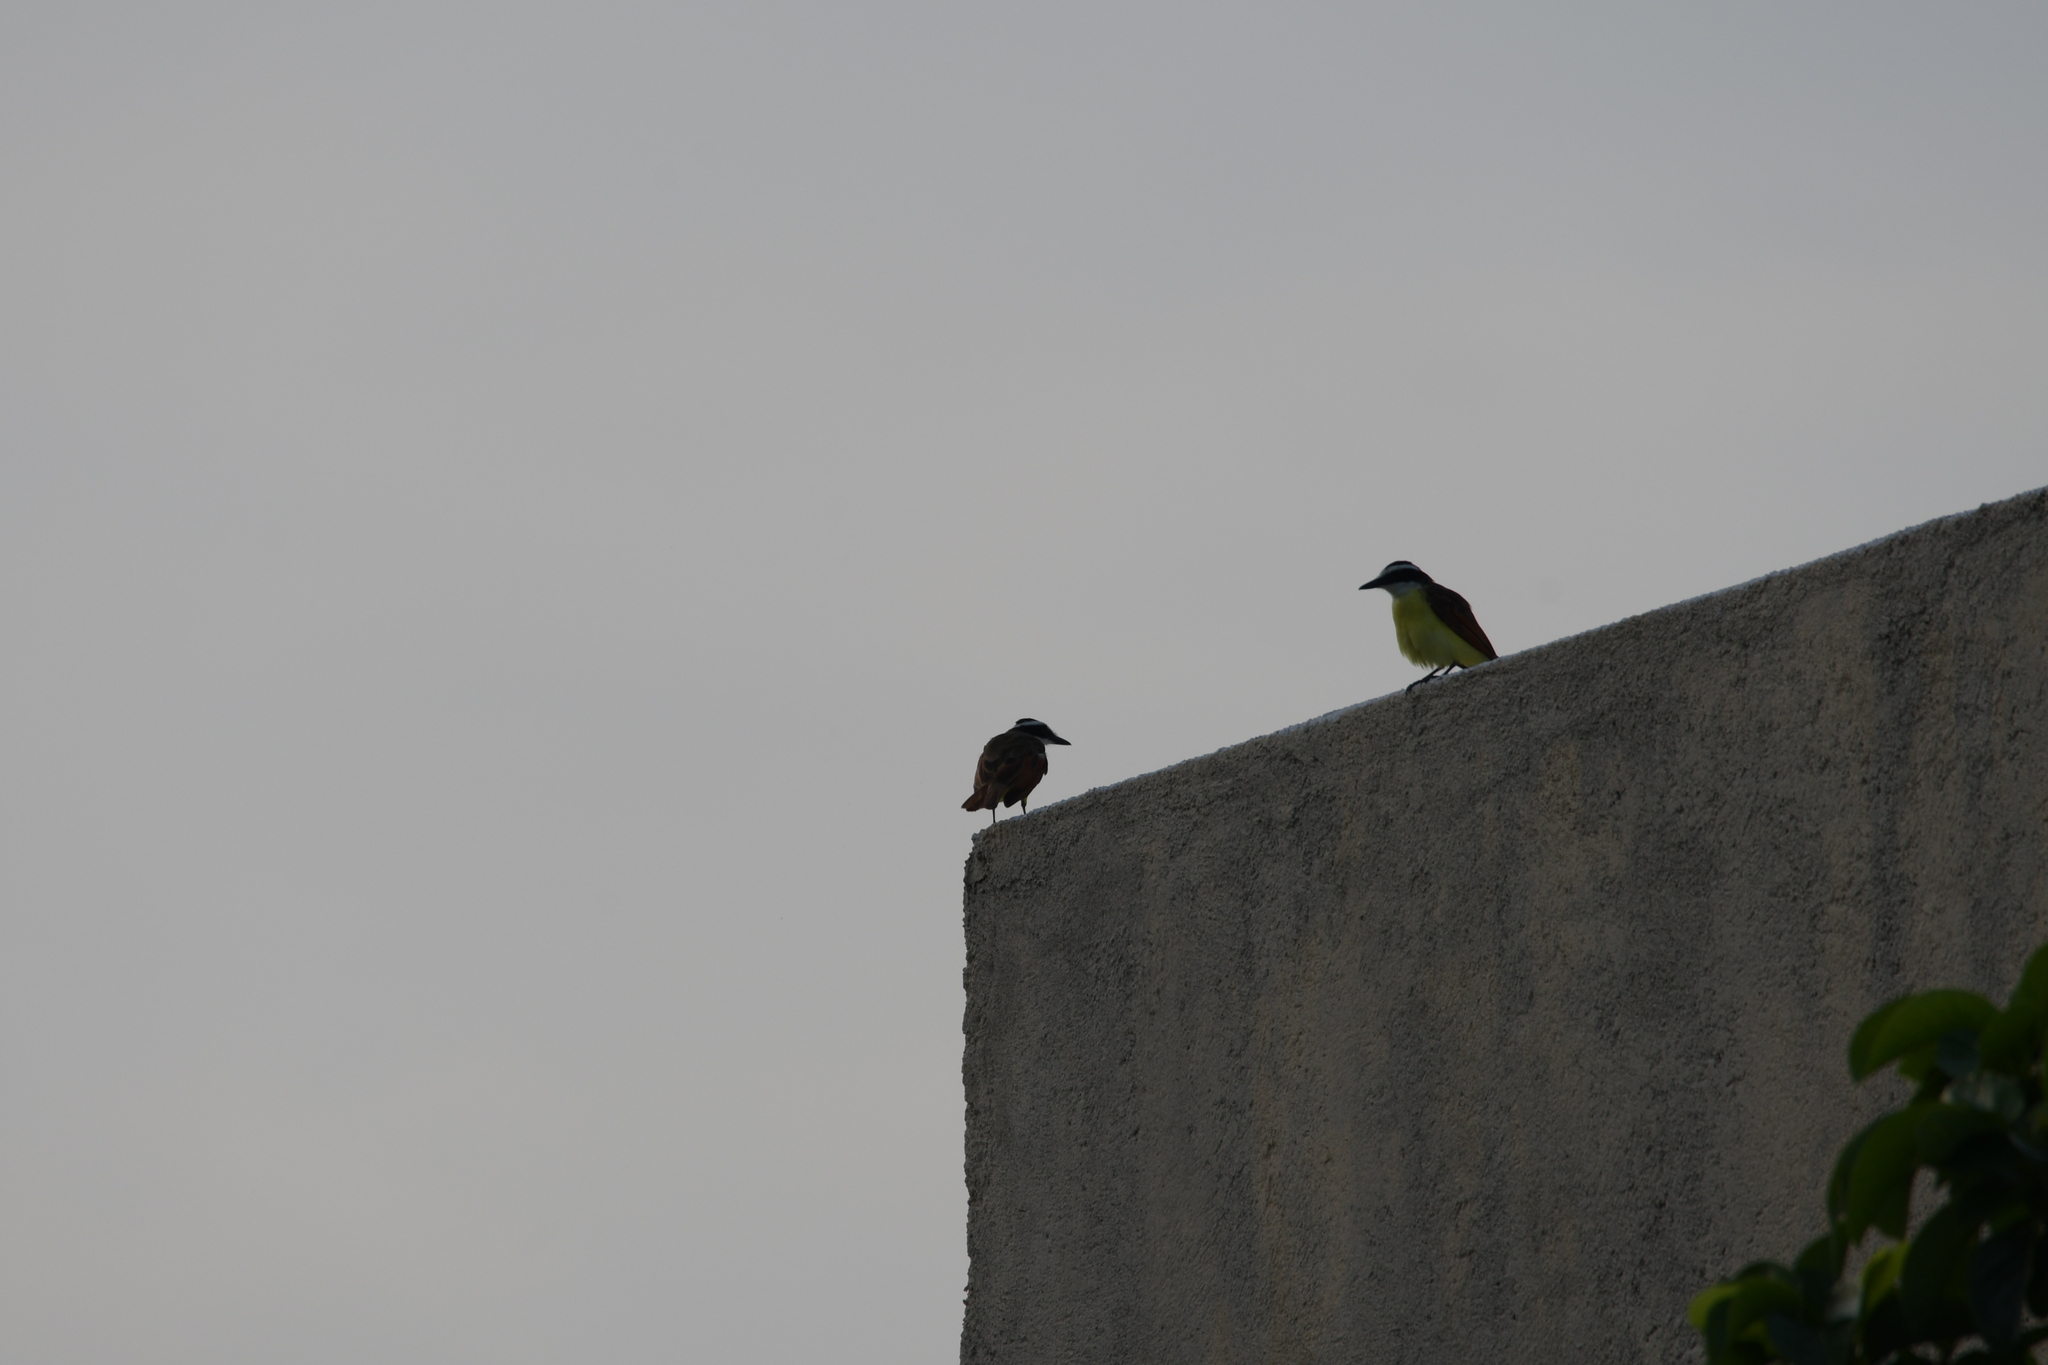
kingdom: Animalia
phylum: Chordata
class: Aves
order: Passeriformes
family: Tyrannidae
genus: Pitangus
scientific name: Pitangus sulphuratus
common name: Great kiskadee
